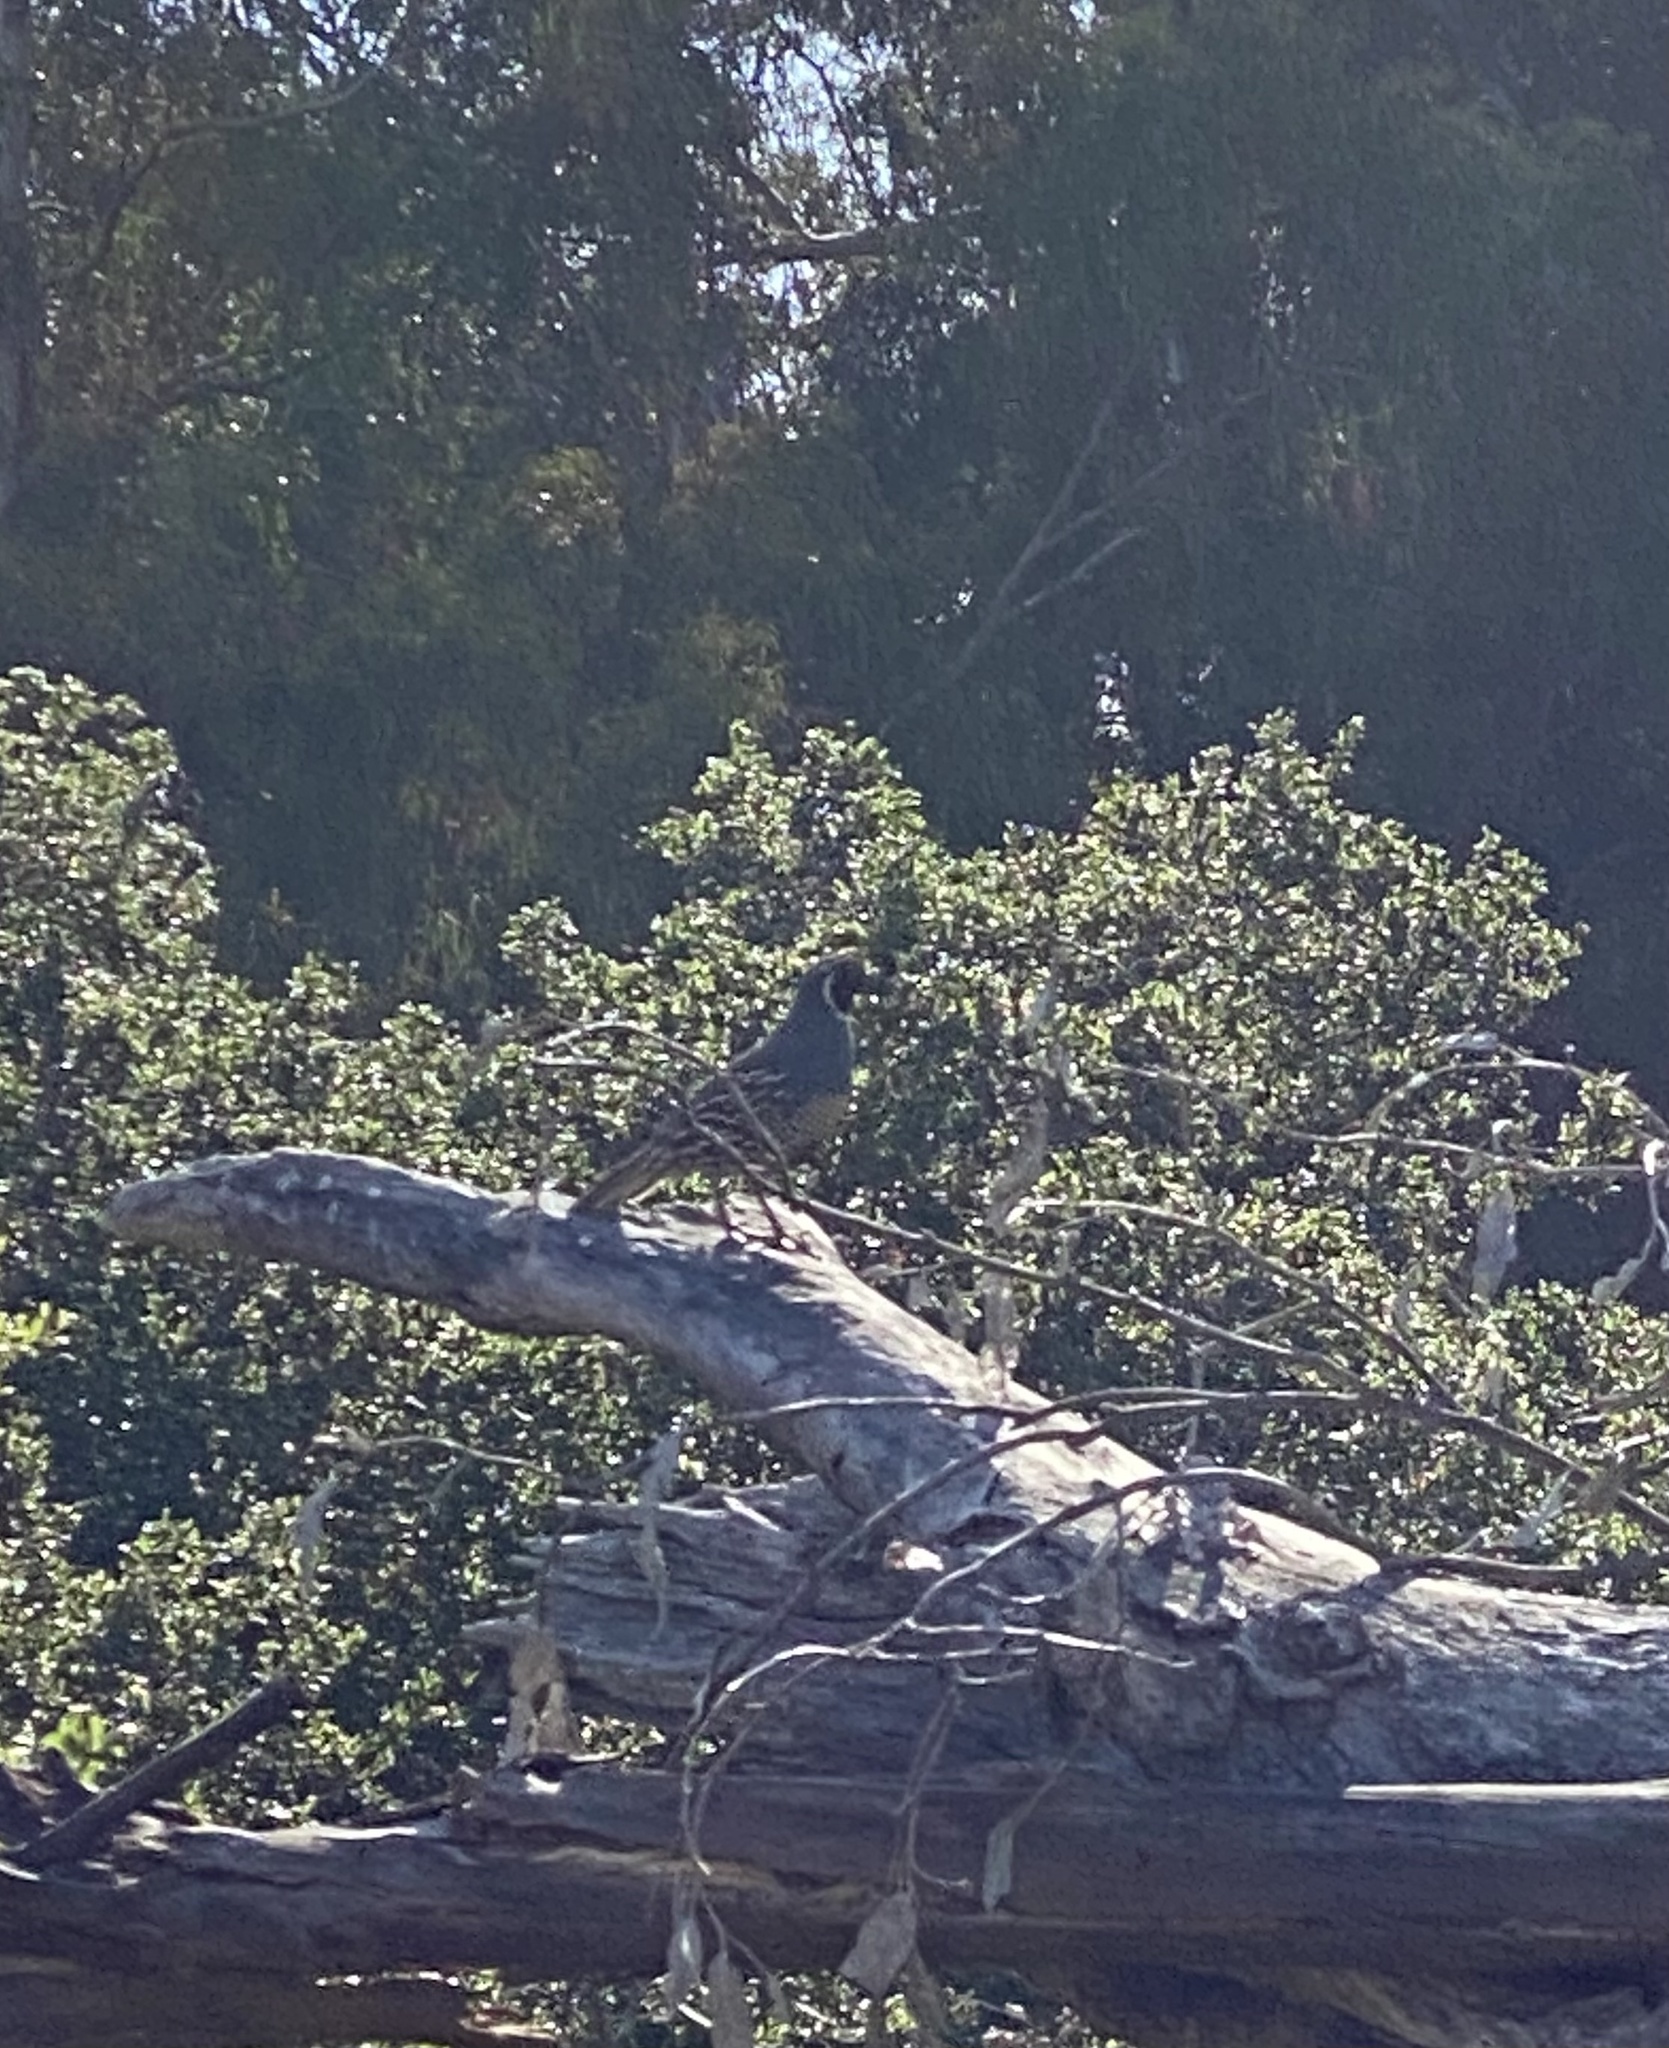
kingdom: Animalia
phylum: Chordata
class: Aves
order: Galliformes
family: Odontophoridae
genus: Callipepla
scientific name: Callipepla californica
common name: California quail
